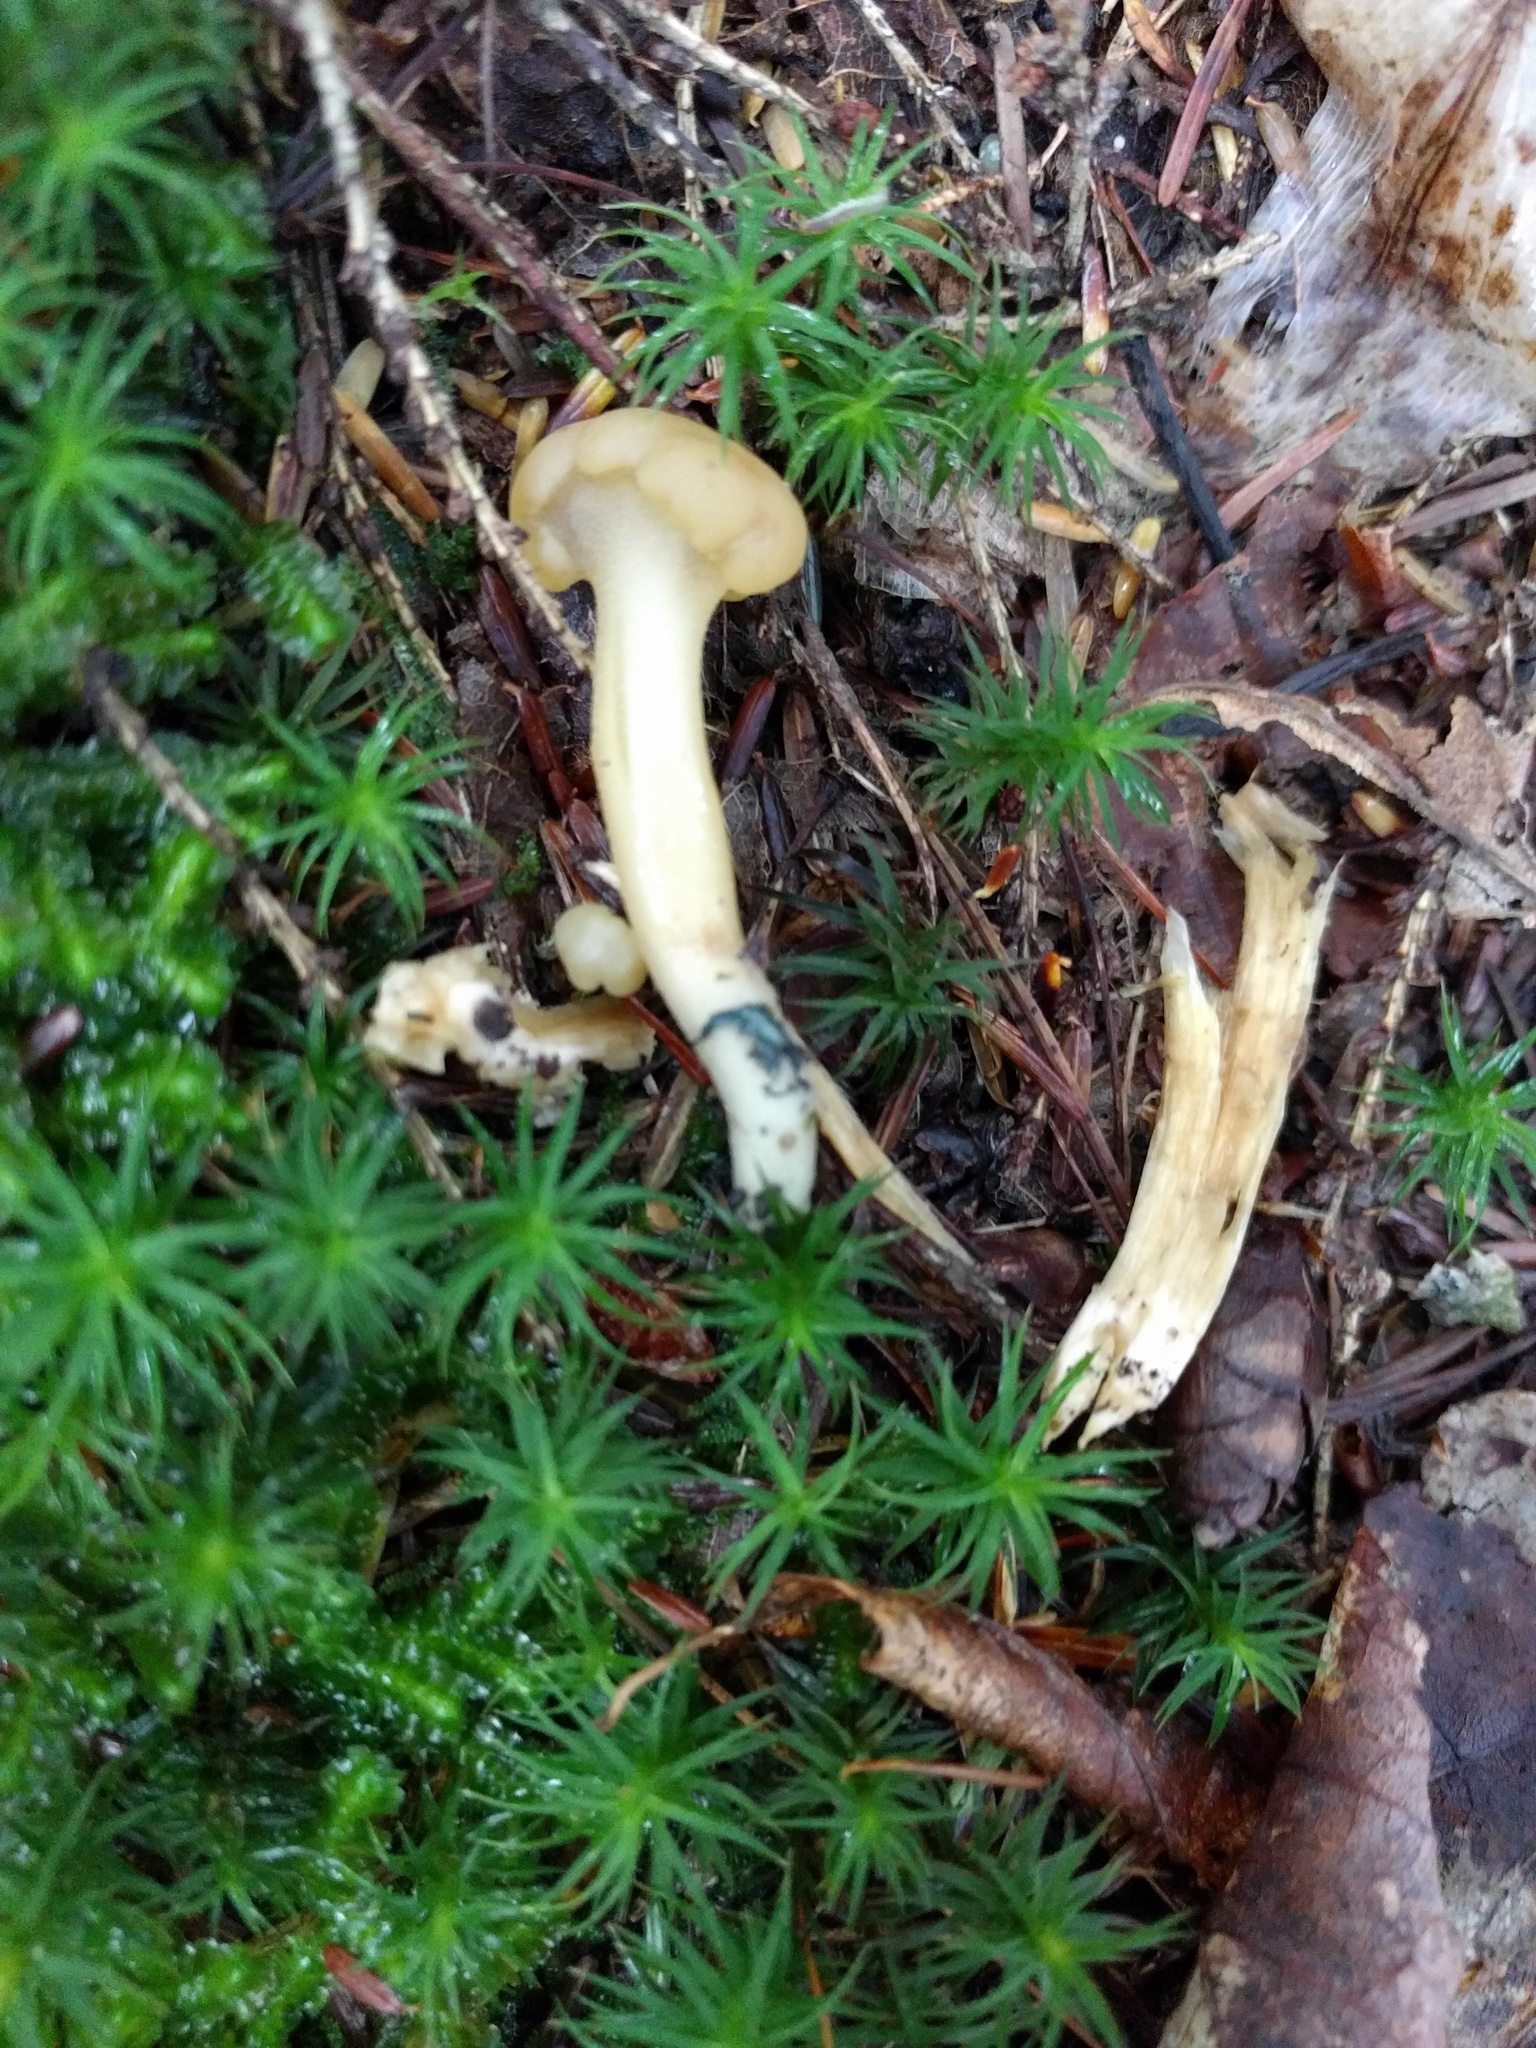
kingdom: Fungi
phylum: Ascomycota
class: Leotiomycetes
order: Leotiales
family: Leotiaceae
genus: Leotia
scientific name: Leotia lubrica
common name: Jellybaby
